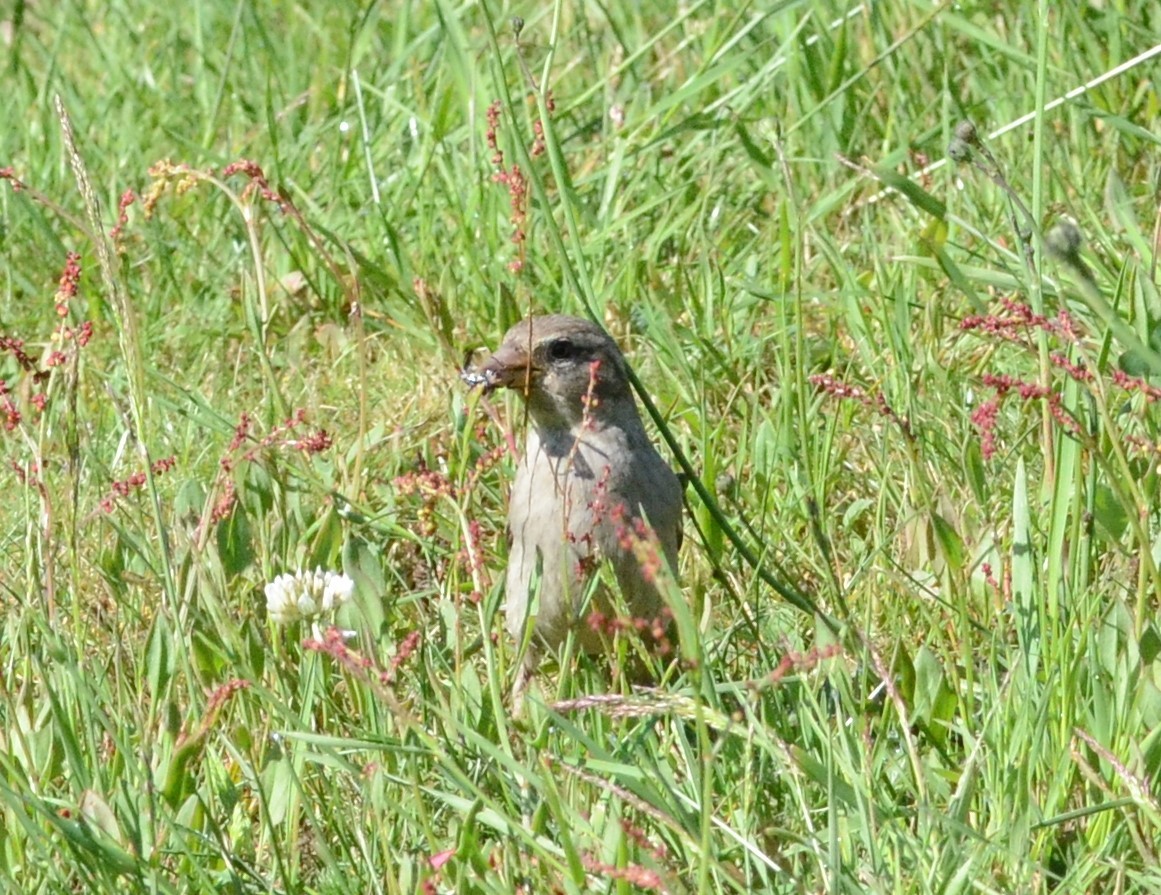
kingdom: Animalia
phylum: Chordata
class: Aves
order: Passeriformes
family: Passeridae
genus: Passer
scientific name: Passer domesticus
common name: House sparrow
